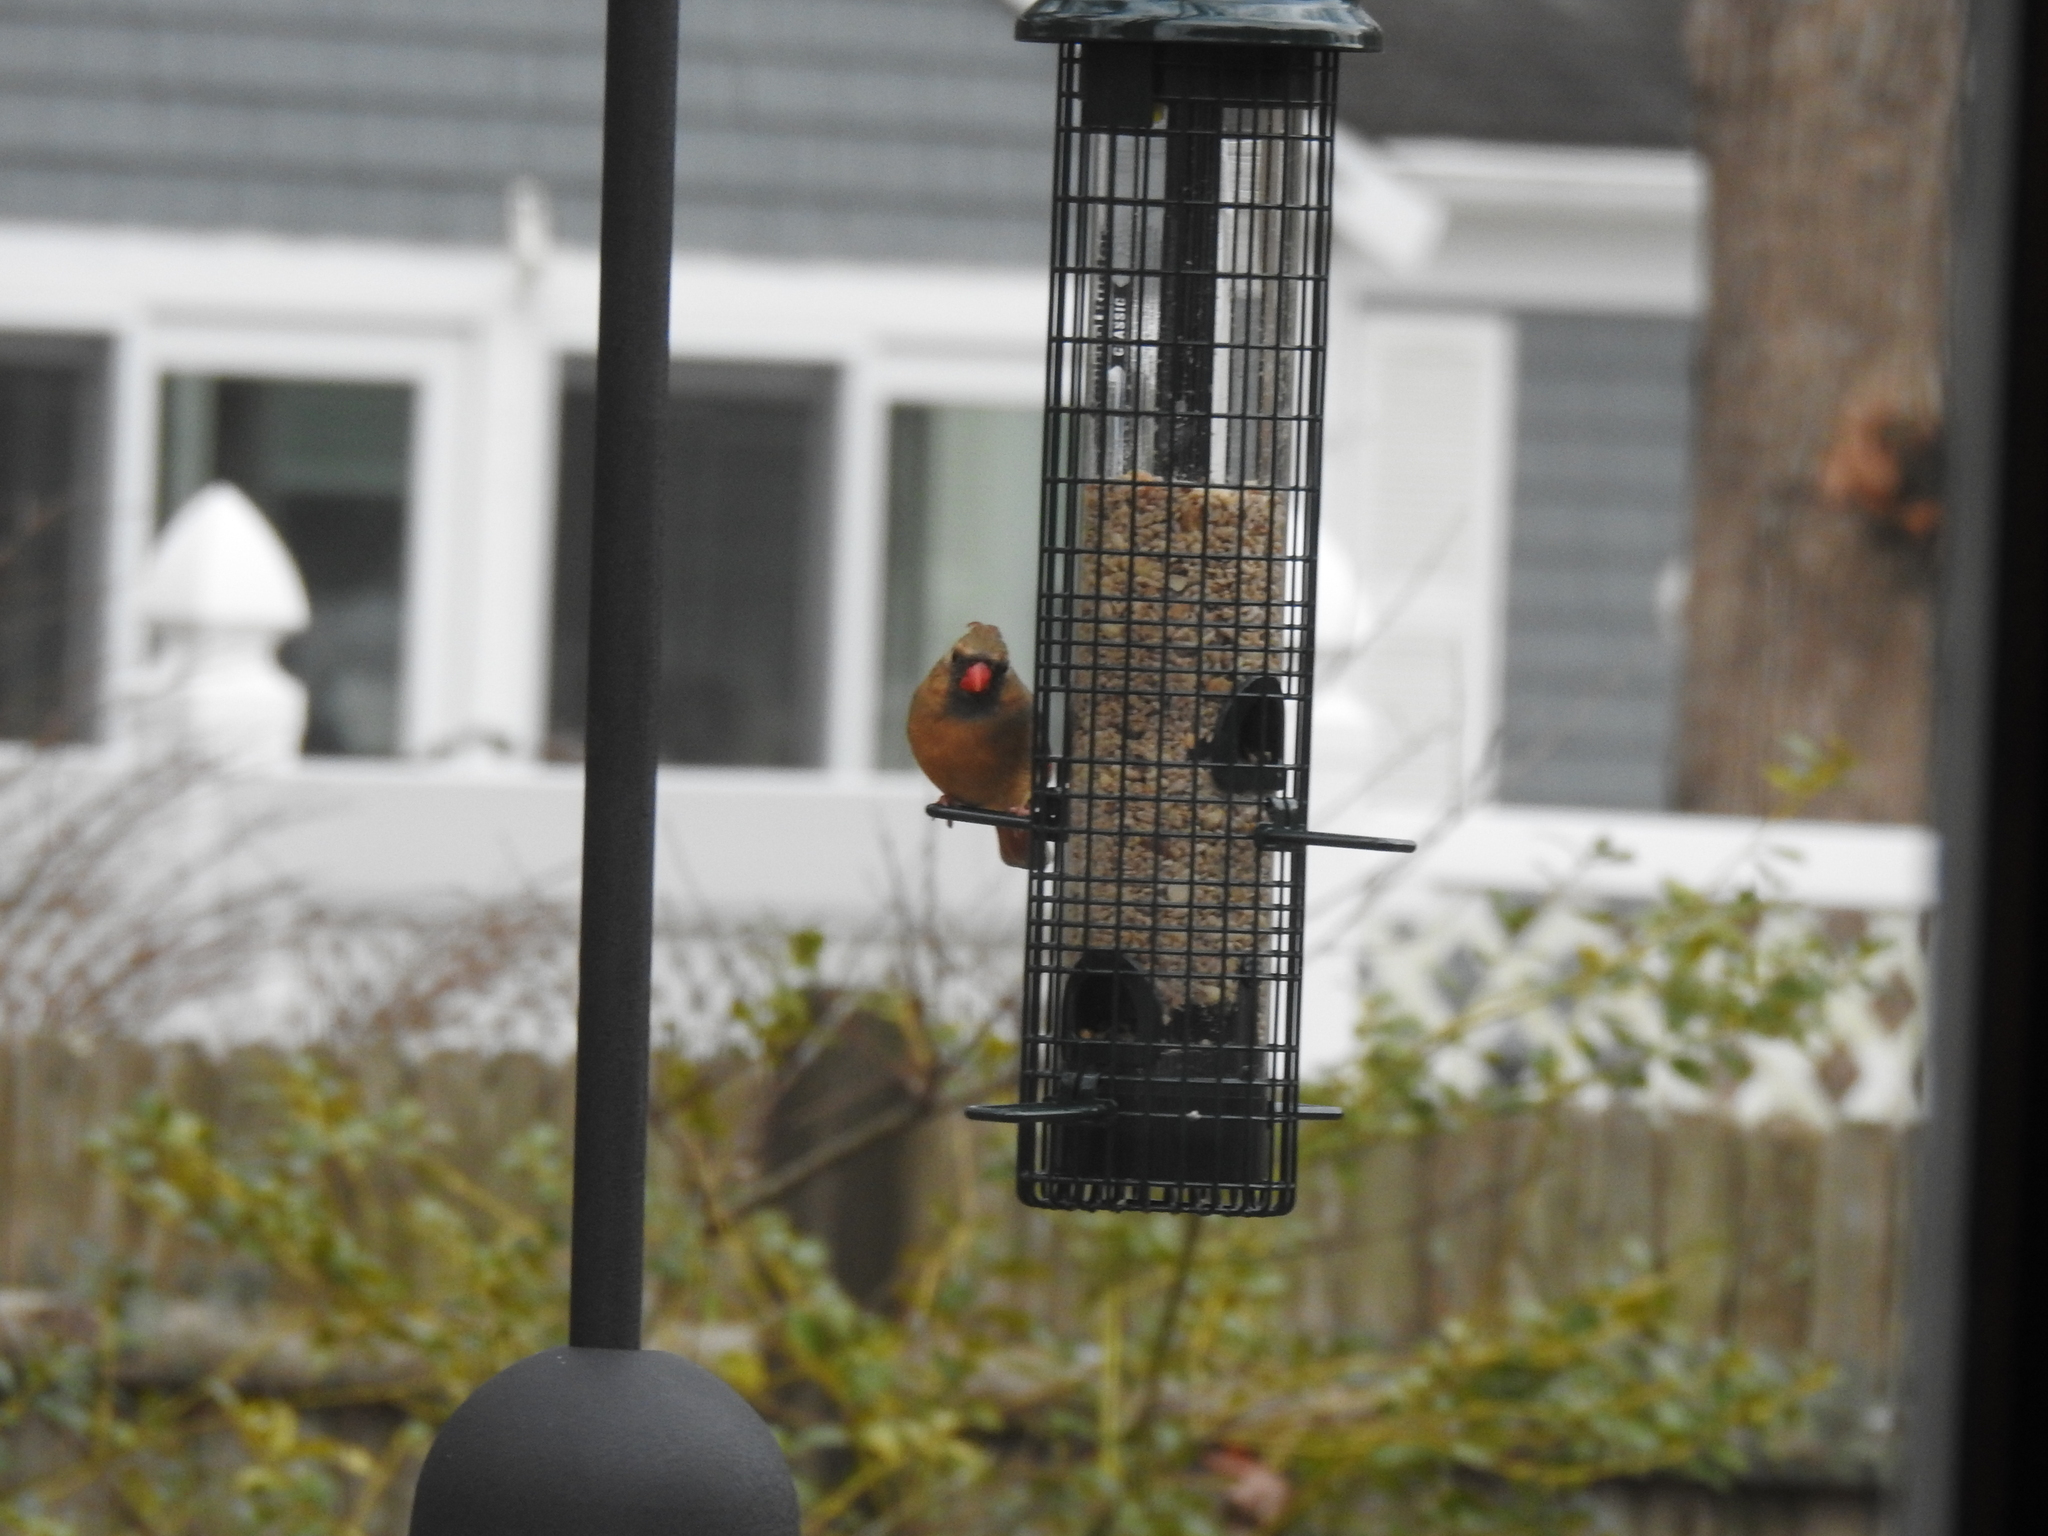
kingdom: Animalia
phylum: Chordata
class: Aves
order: Passeriformes
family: Cardinalidae
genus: Cardinalis
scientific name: Cardinalis cardinalis
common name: Northern cardinal
